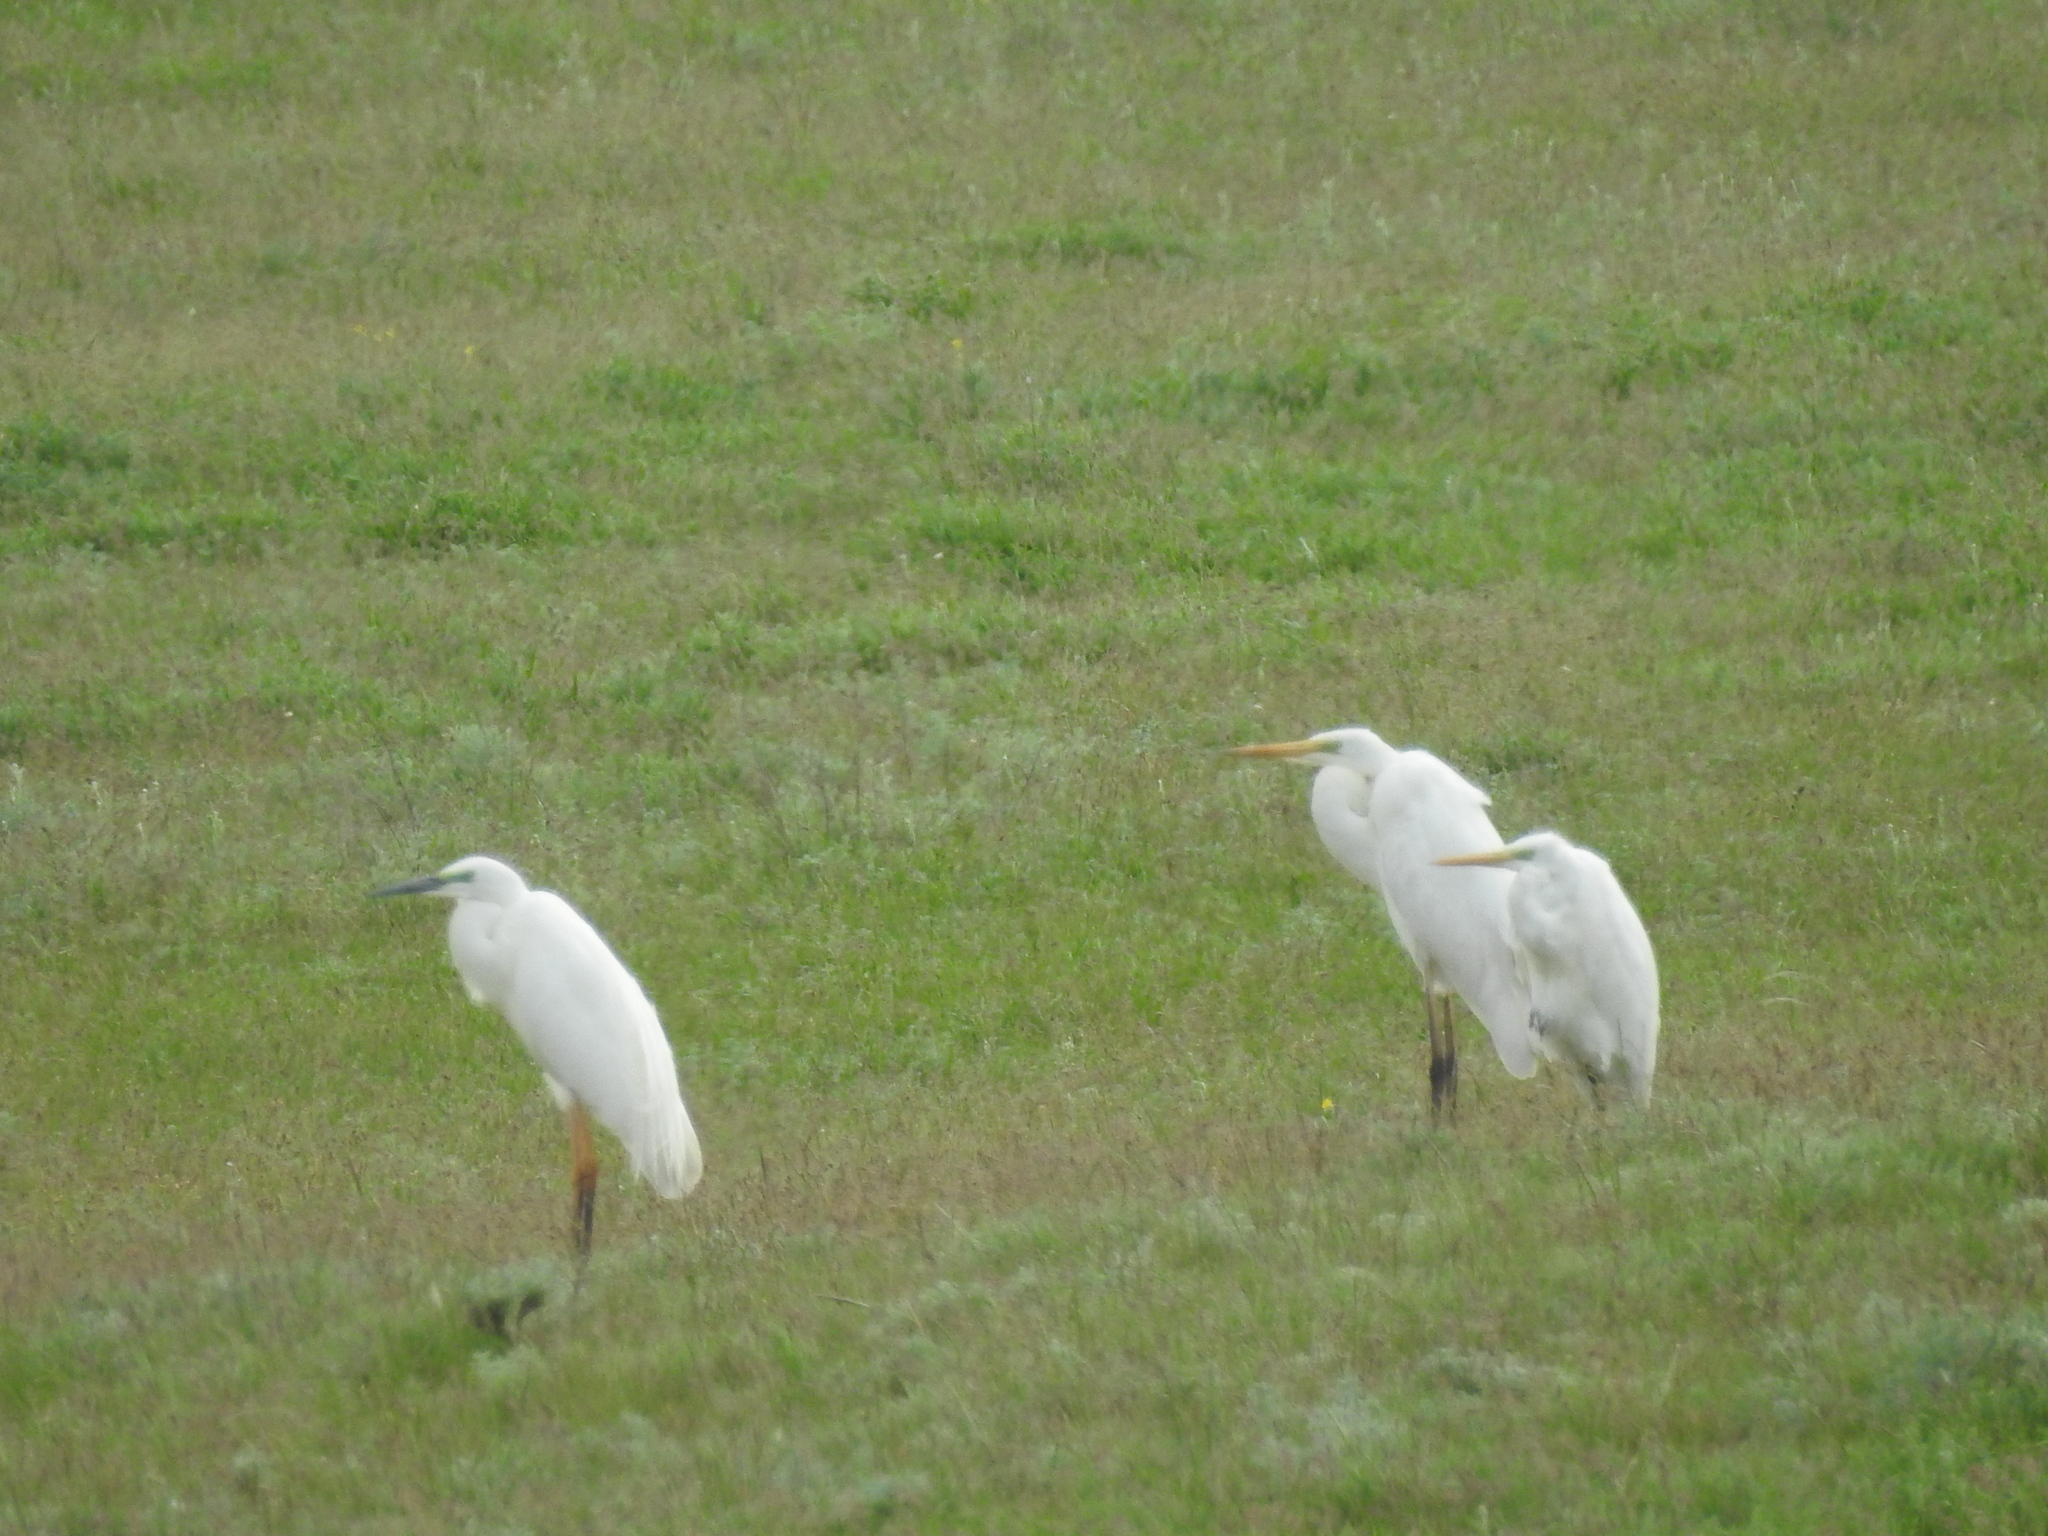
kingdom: Animalia
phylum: Chordata
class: Aves
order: Pelecaniformes
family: Ardeidae
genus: Ardea
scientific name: Ardea alba
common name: Great egret
